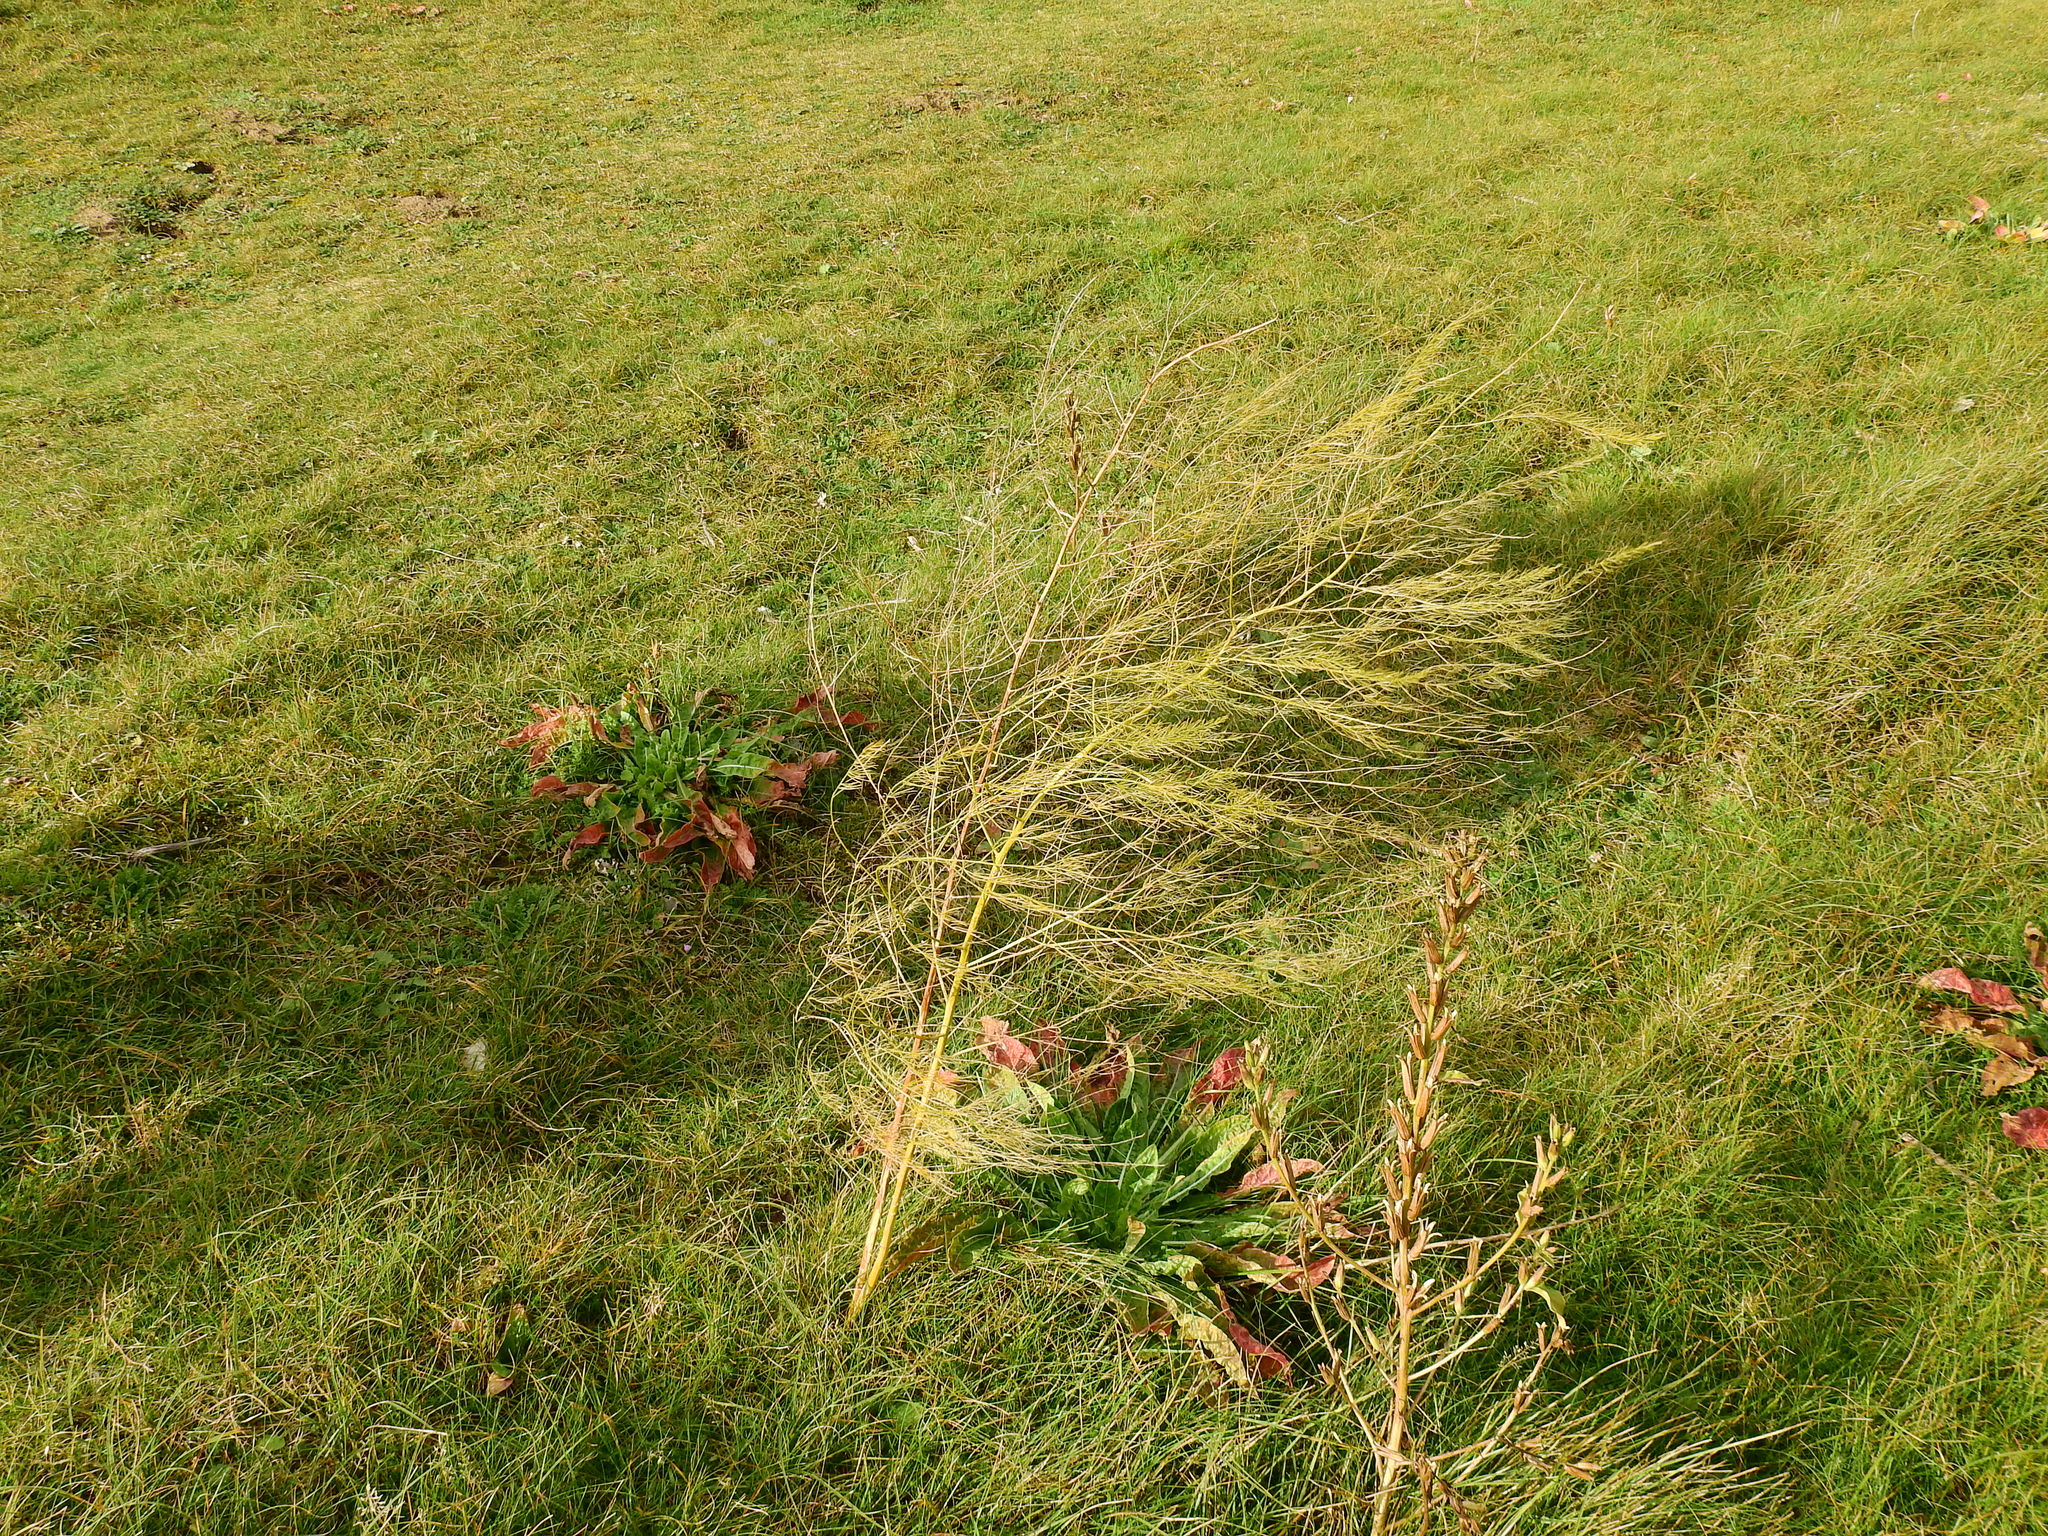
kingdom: Plantae
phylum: Tracheophyta
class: Liliopsida
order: Asparagales
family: Asparagaceae
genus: Asparagus
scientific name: Asparagus officinalis
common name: Garden asparagus
